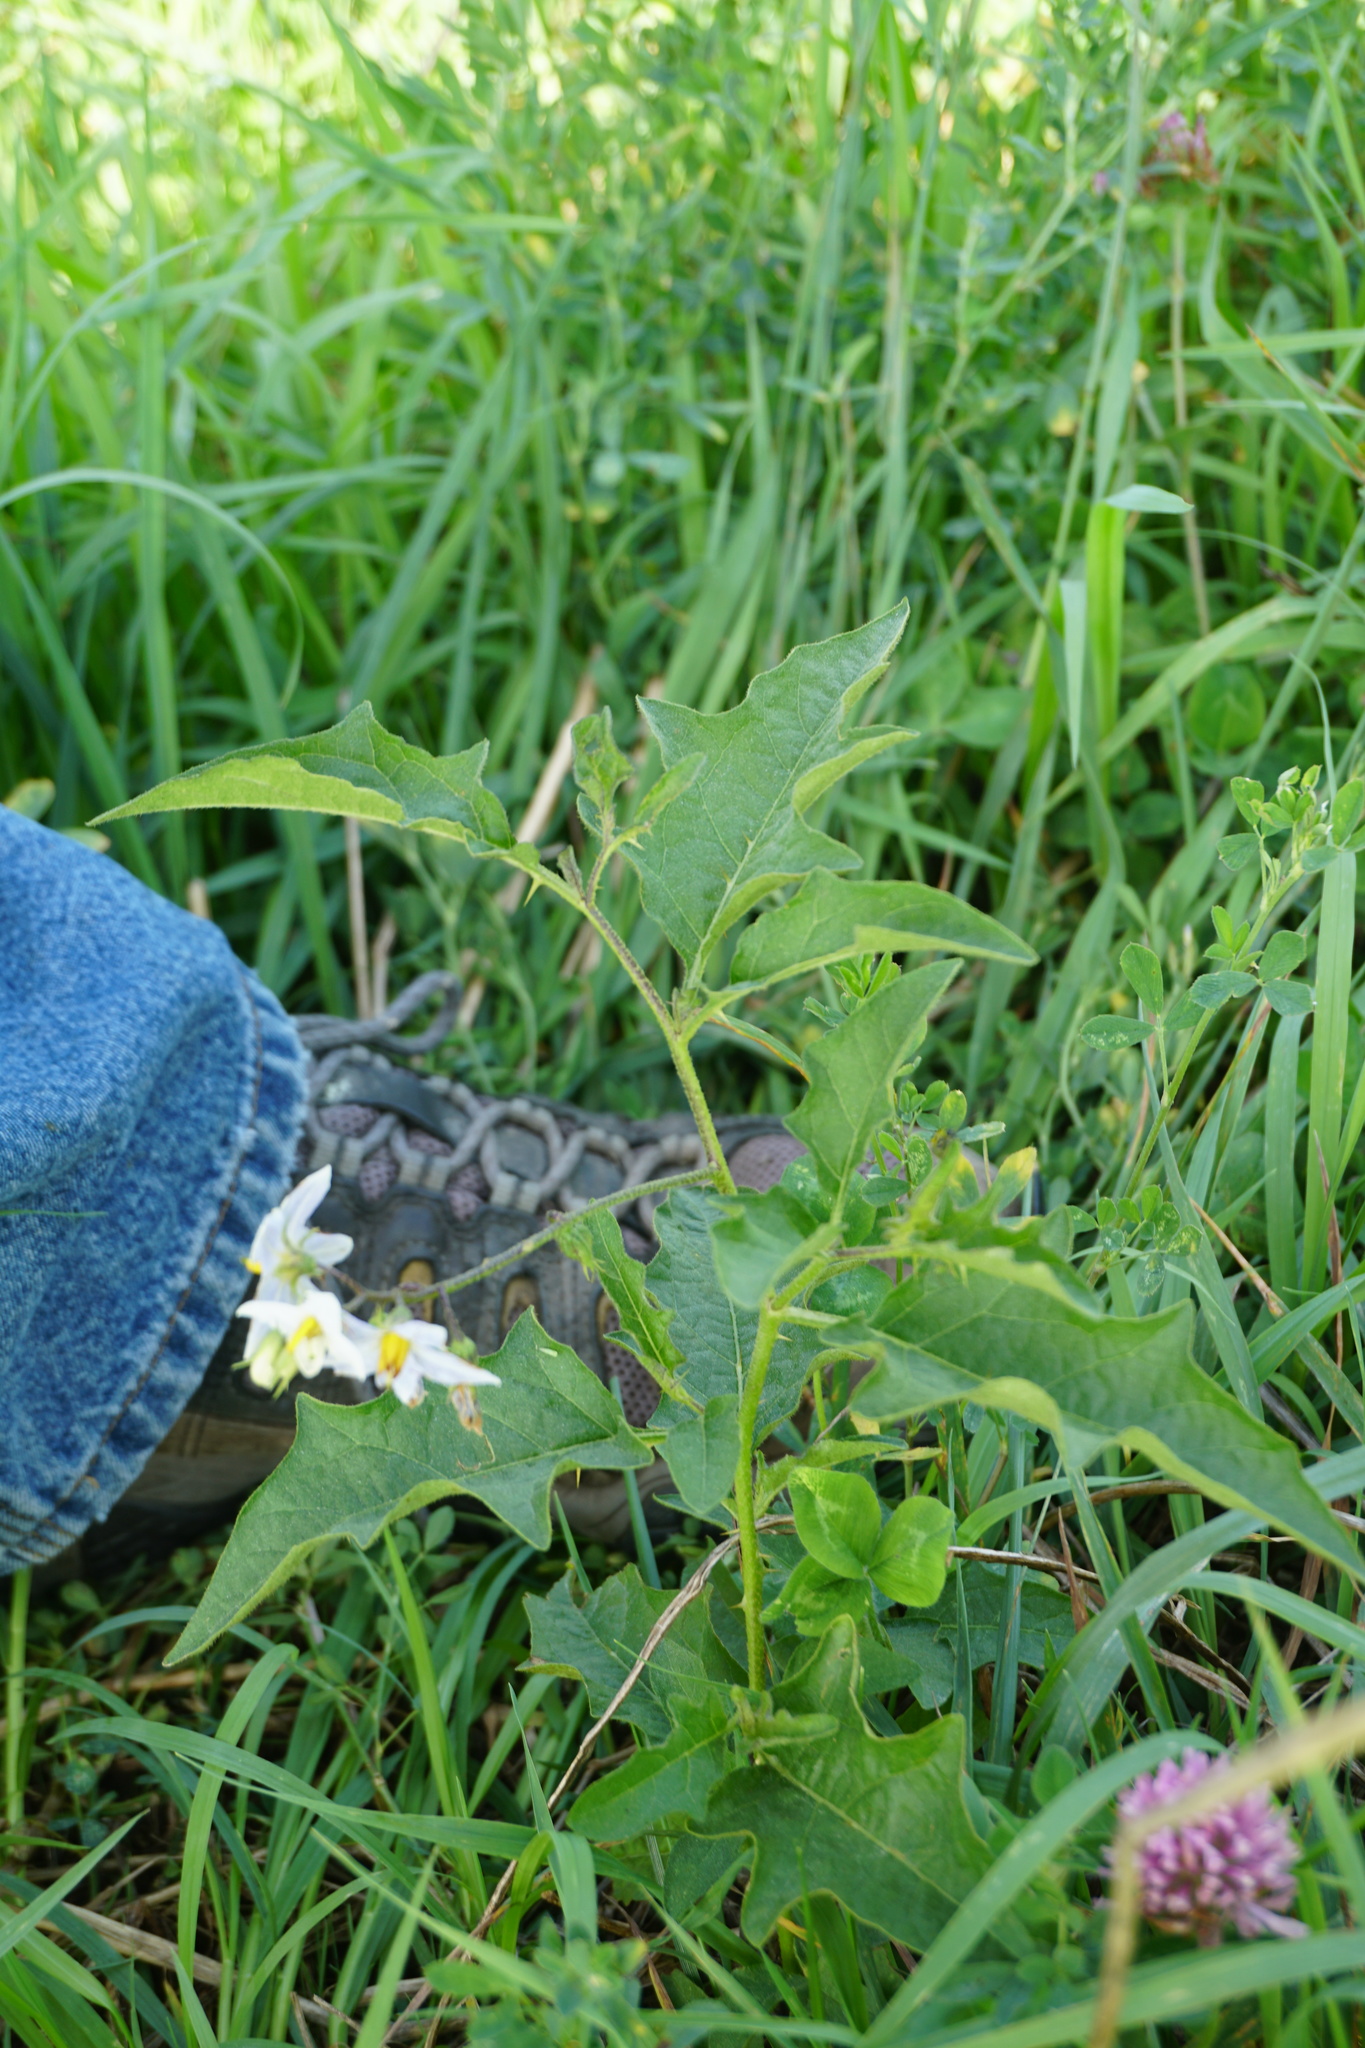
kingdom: Plantae
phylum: Tracheophyta
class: Magnoliopsida
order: Solanales
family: Solanaceae
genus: Solanum
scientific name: Solanum carolinense
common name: Horse-nettle
